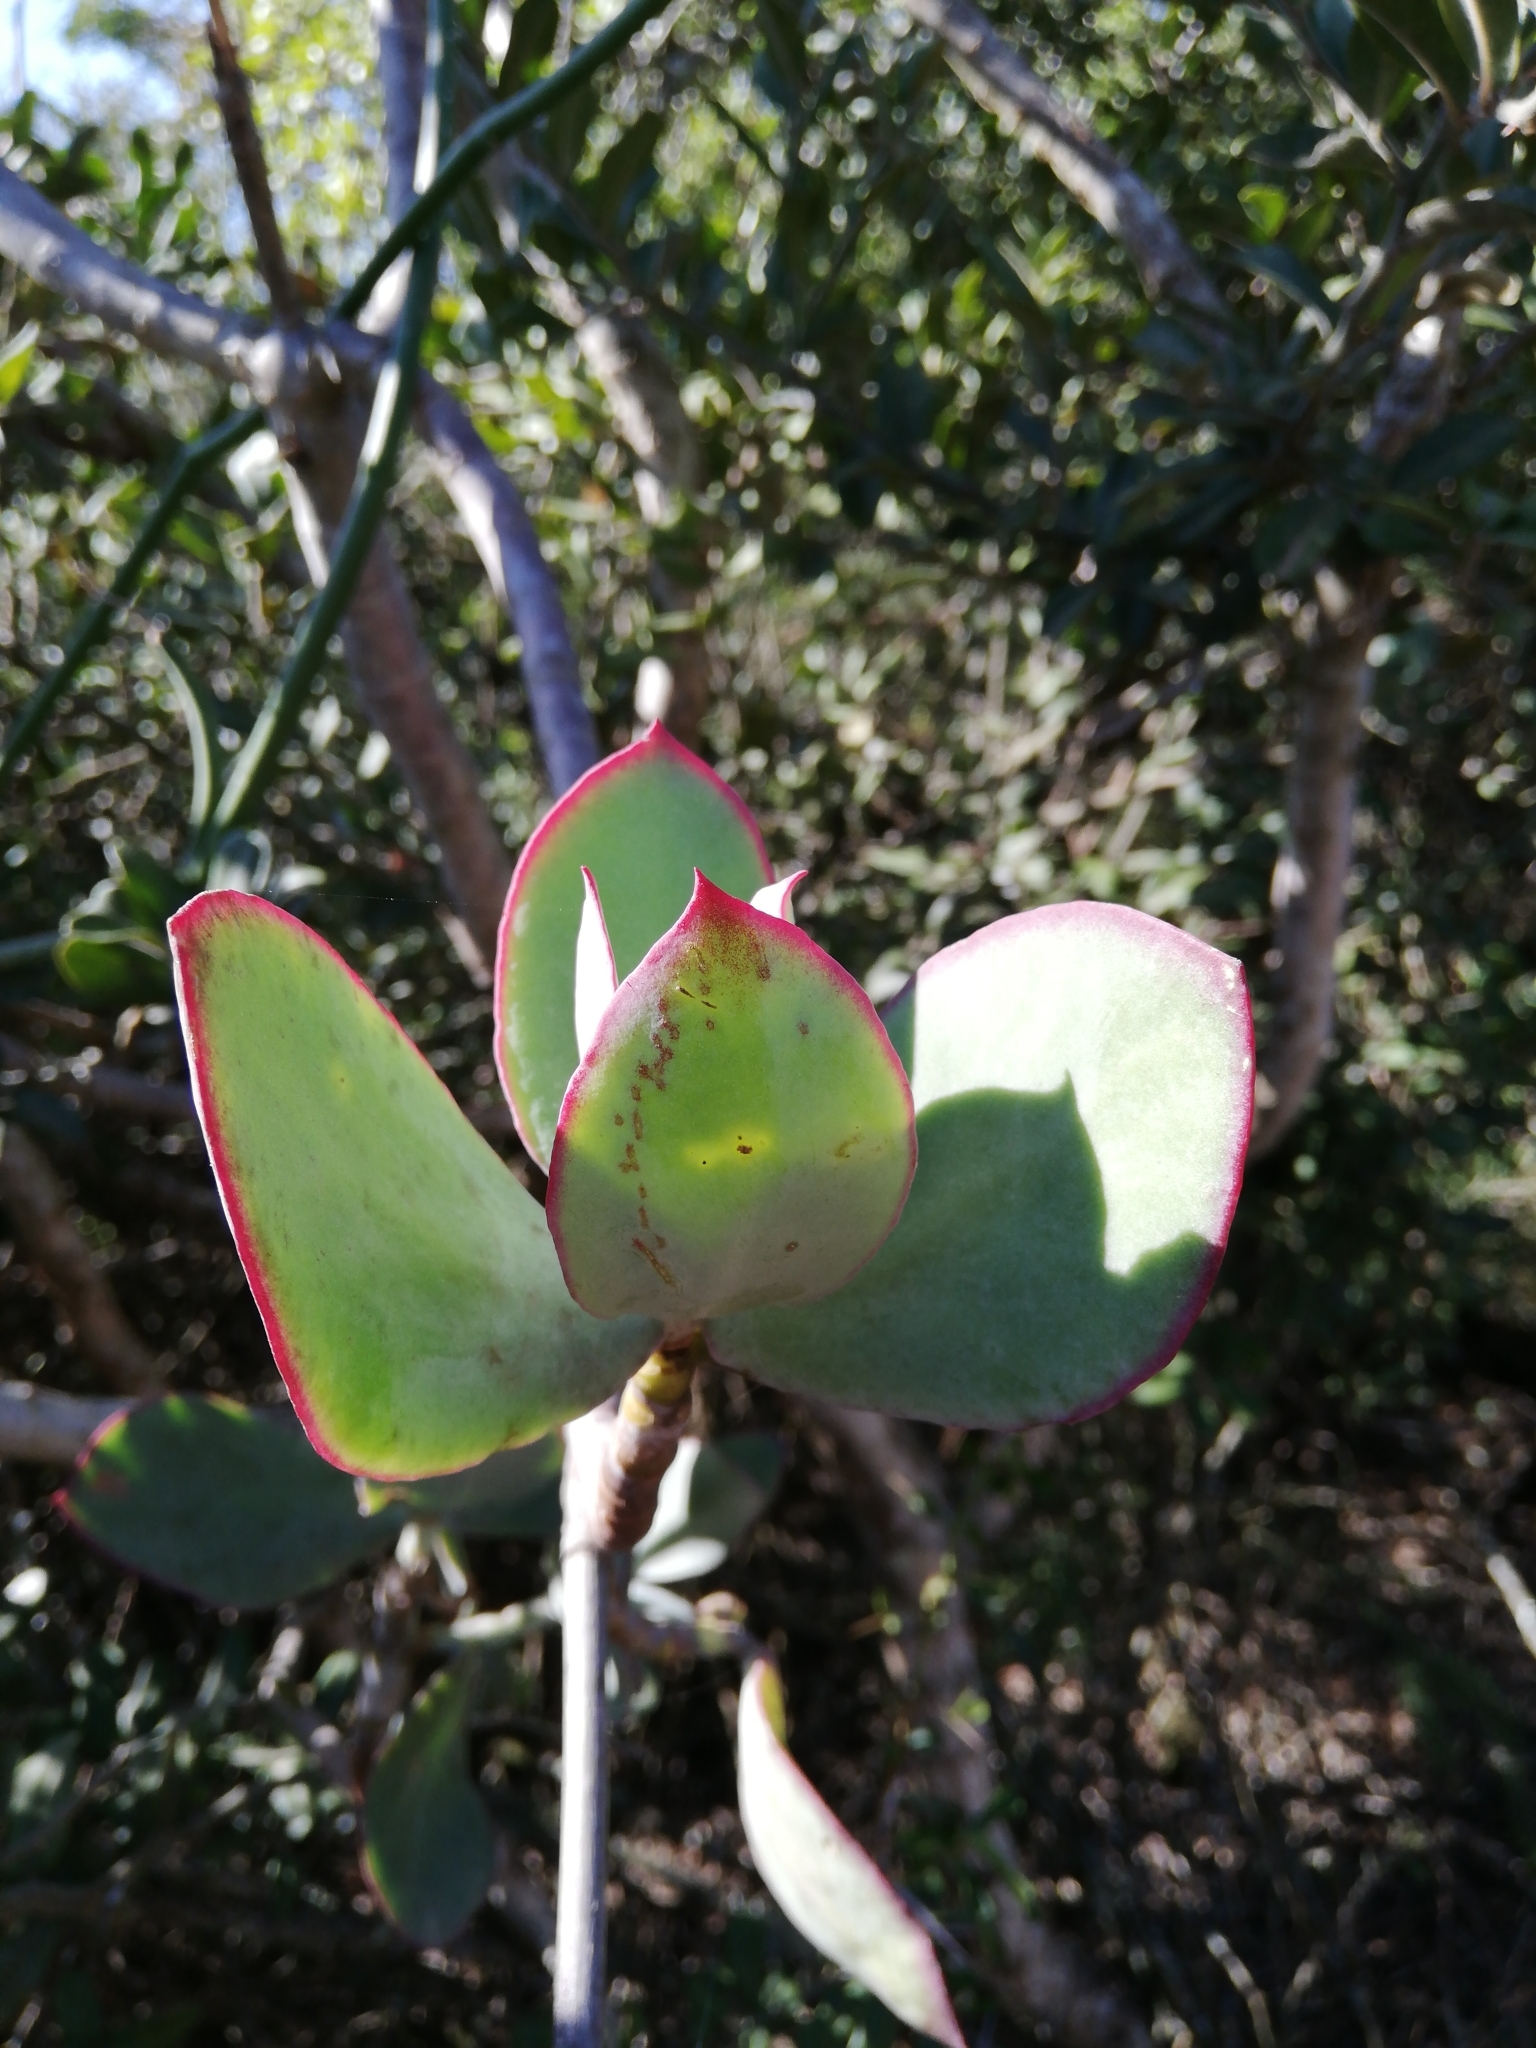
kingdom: Plantae
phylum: Tracheophyta
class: Magnoliopsida
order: Saxifragales
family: Crassulaceae
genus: Cotyledon
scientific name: Cotyledon velutina
